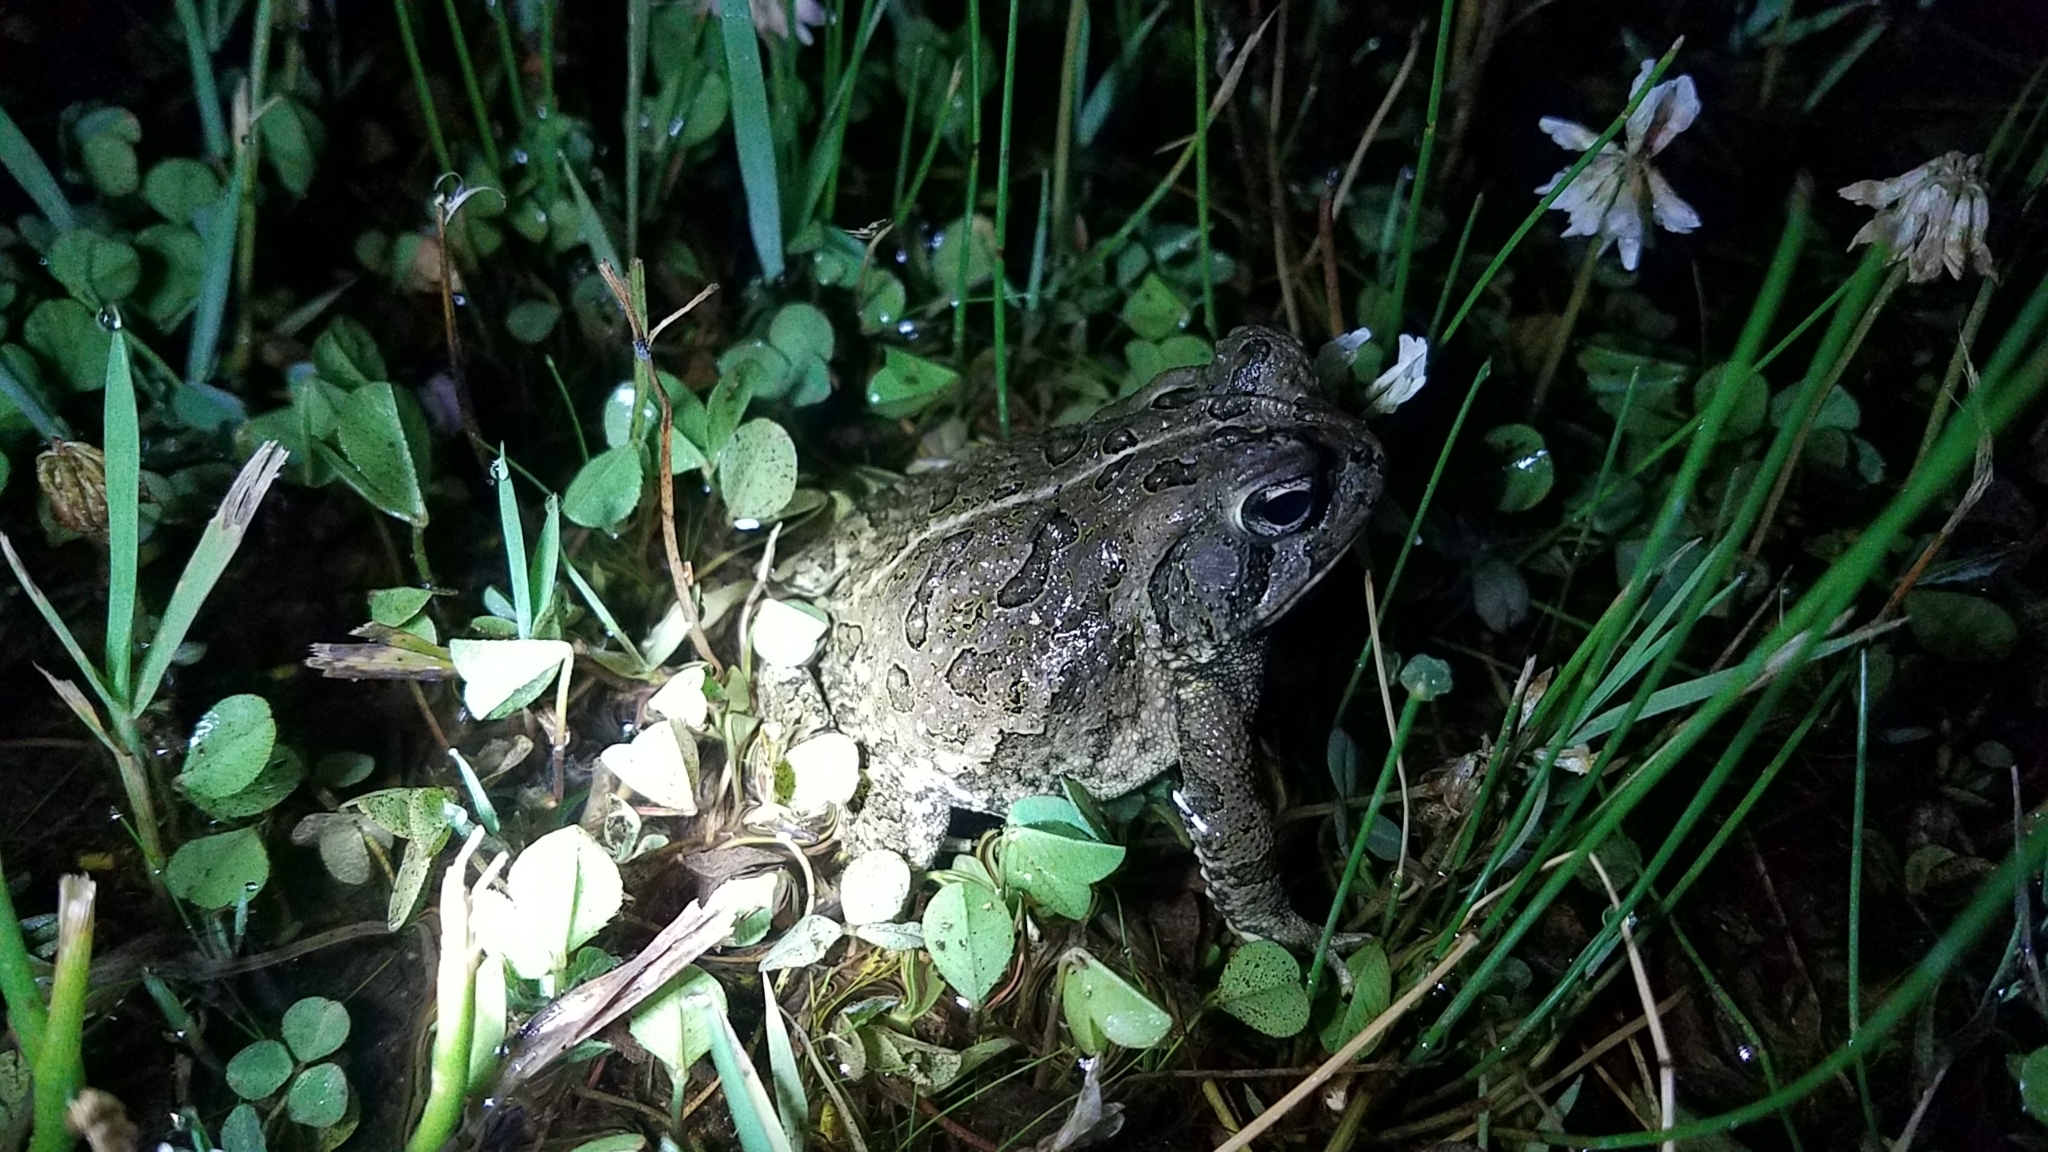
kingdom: Animalia
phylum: Chordata
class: Amphibia
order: Anura
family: Bufonidae
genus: Anaxyrus
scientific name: Anaxyrus fowleri
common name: Fowler's toad
